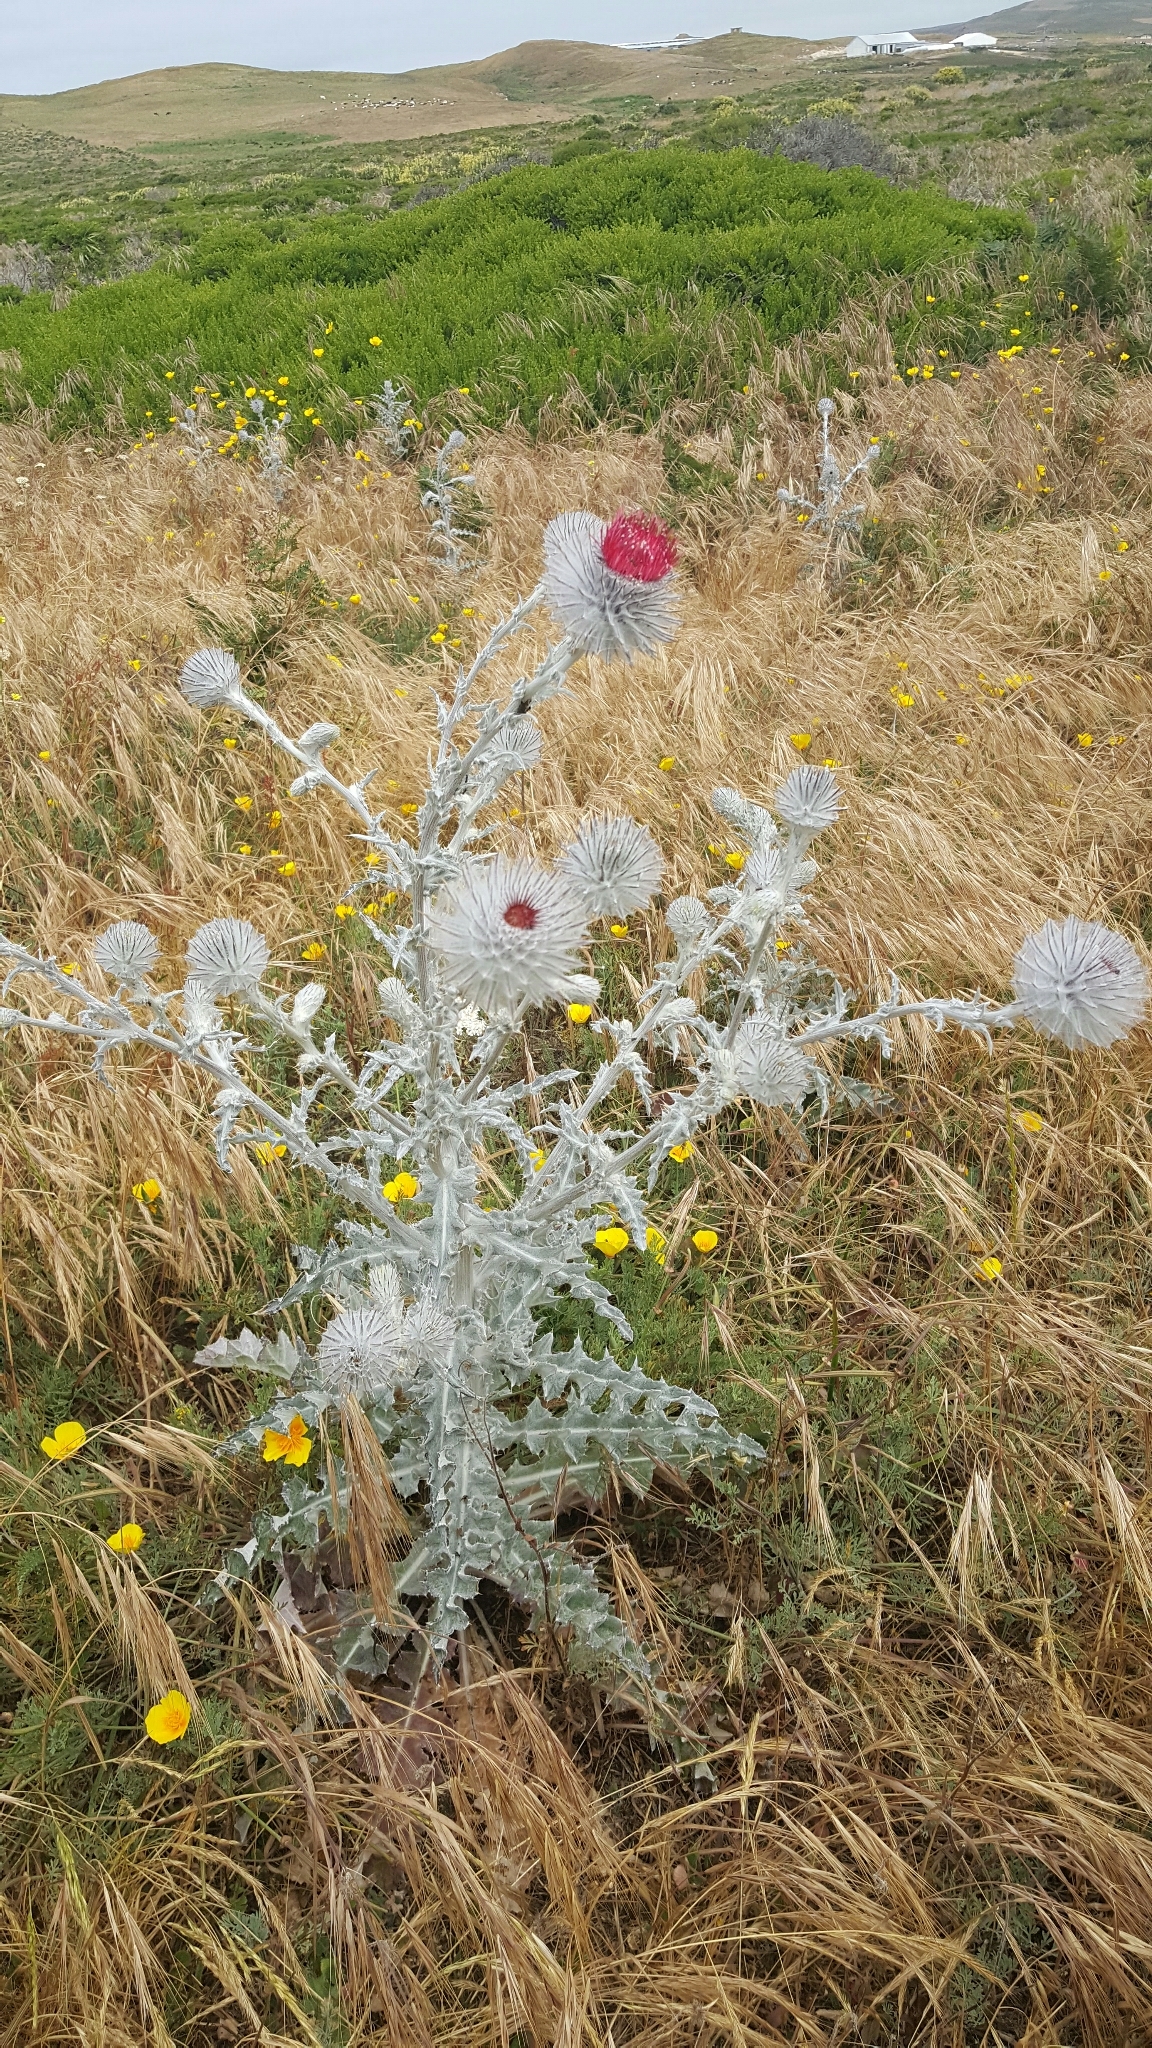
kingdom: Plantae
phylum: Tracheophyta
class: Magnoliopsida
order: Asterales
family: Asteraceae
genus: Cirsium
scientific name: Cirsium occidentale
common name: Western thistle
